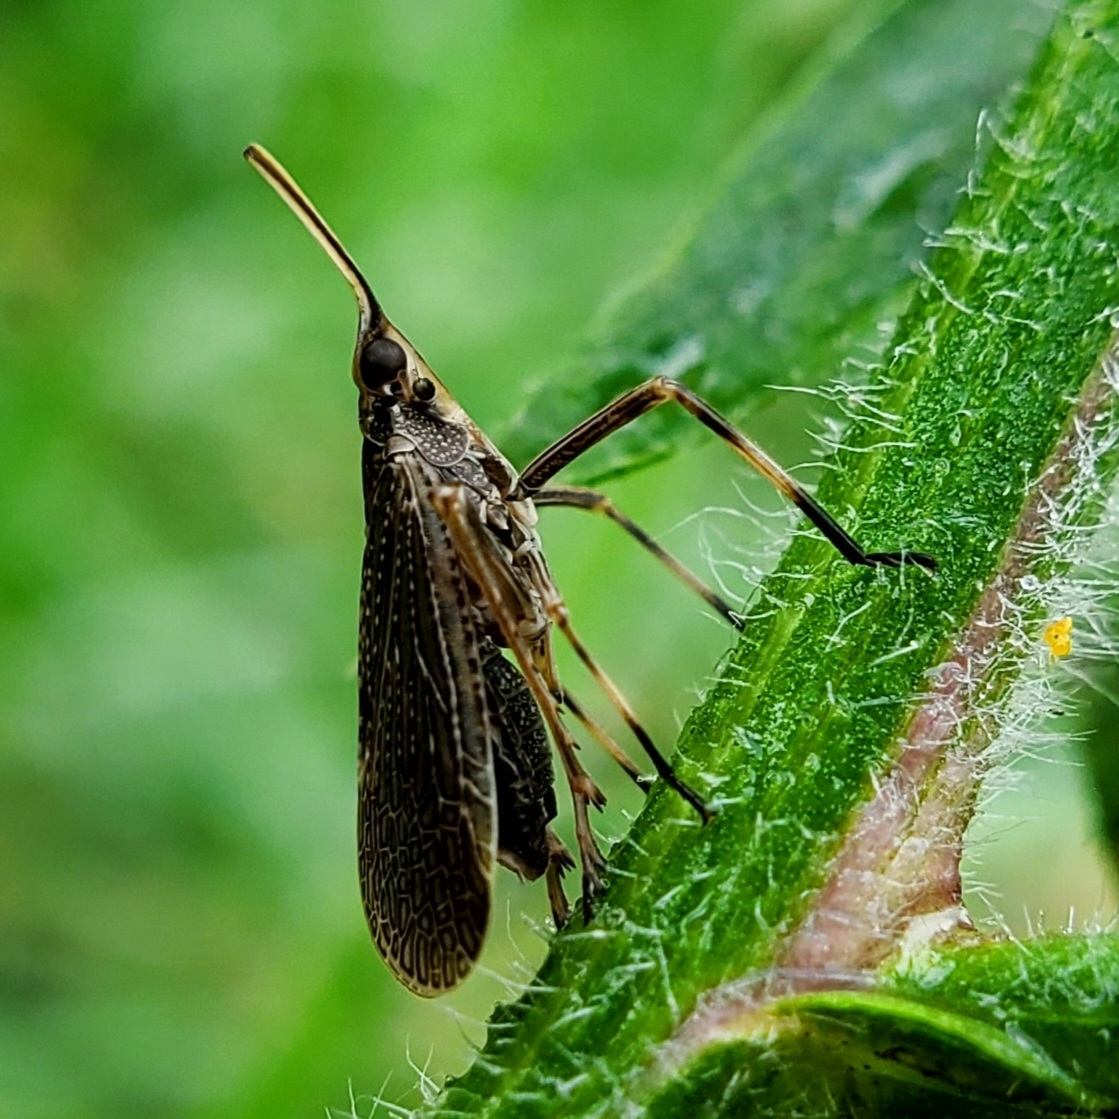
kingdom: Animalia
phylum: Arthropoda
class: Insecta
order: Hemiptera
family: Dictyopharidae
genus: Scolops
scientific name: Scolops sulcipes
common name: Partridge planthopper
